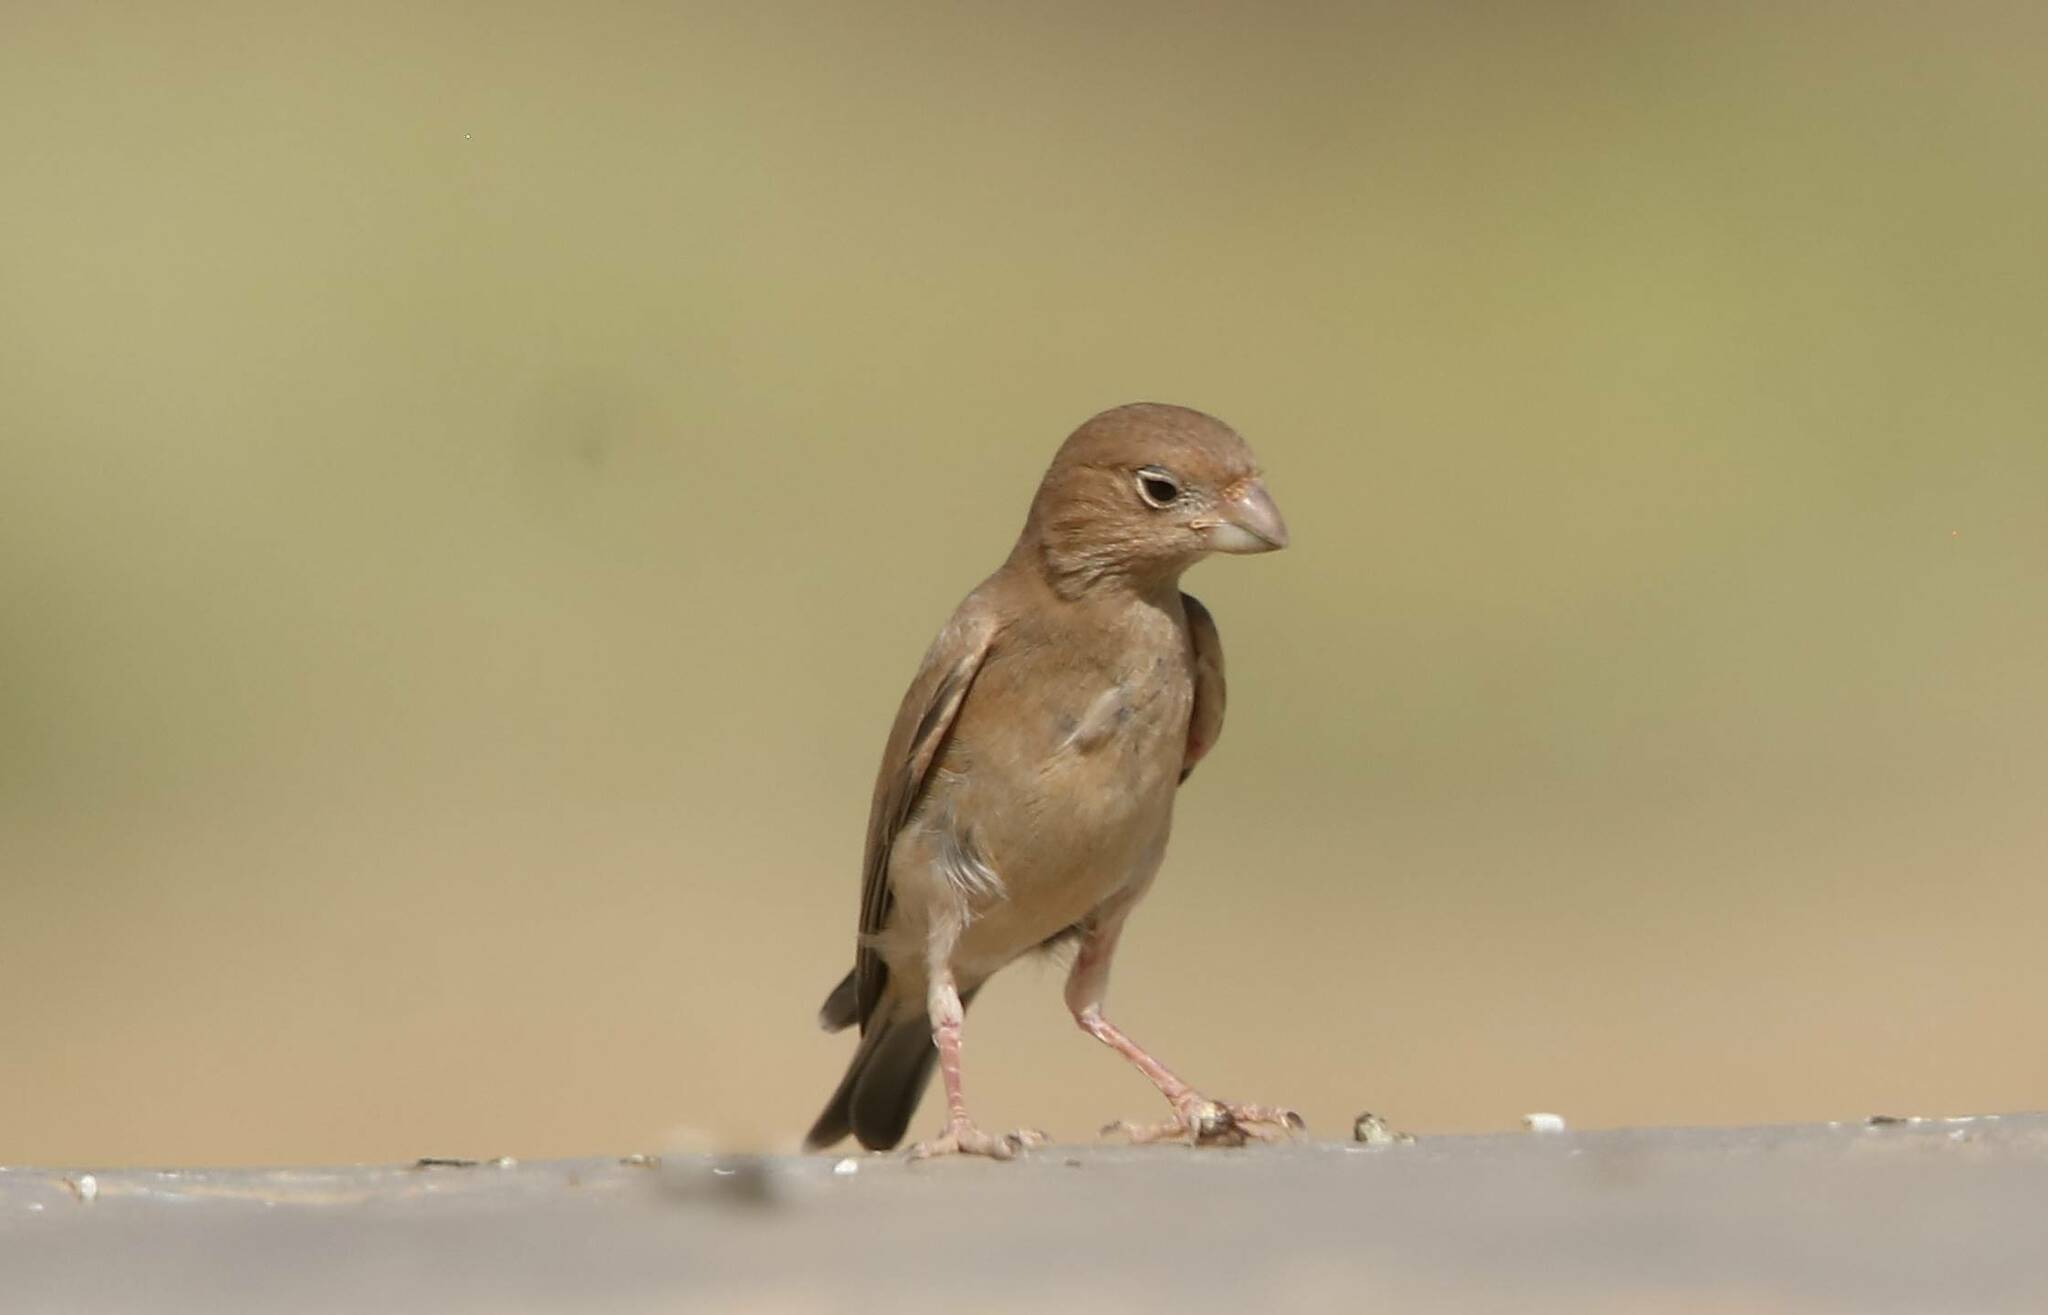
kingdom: Animalia
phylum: Chordata
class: Aves
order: Passeriformes
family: Fringillidae
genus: Bucanetes
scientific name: Bucanetes githagineus
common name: Trumpeter finch
